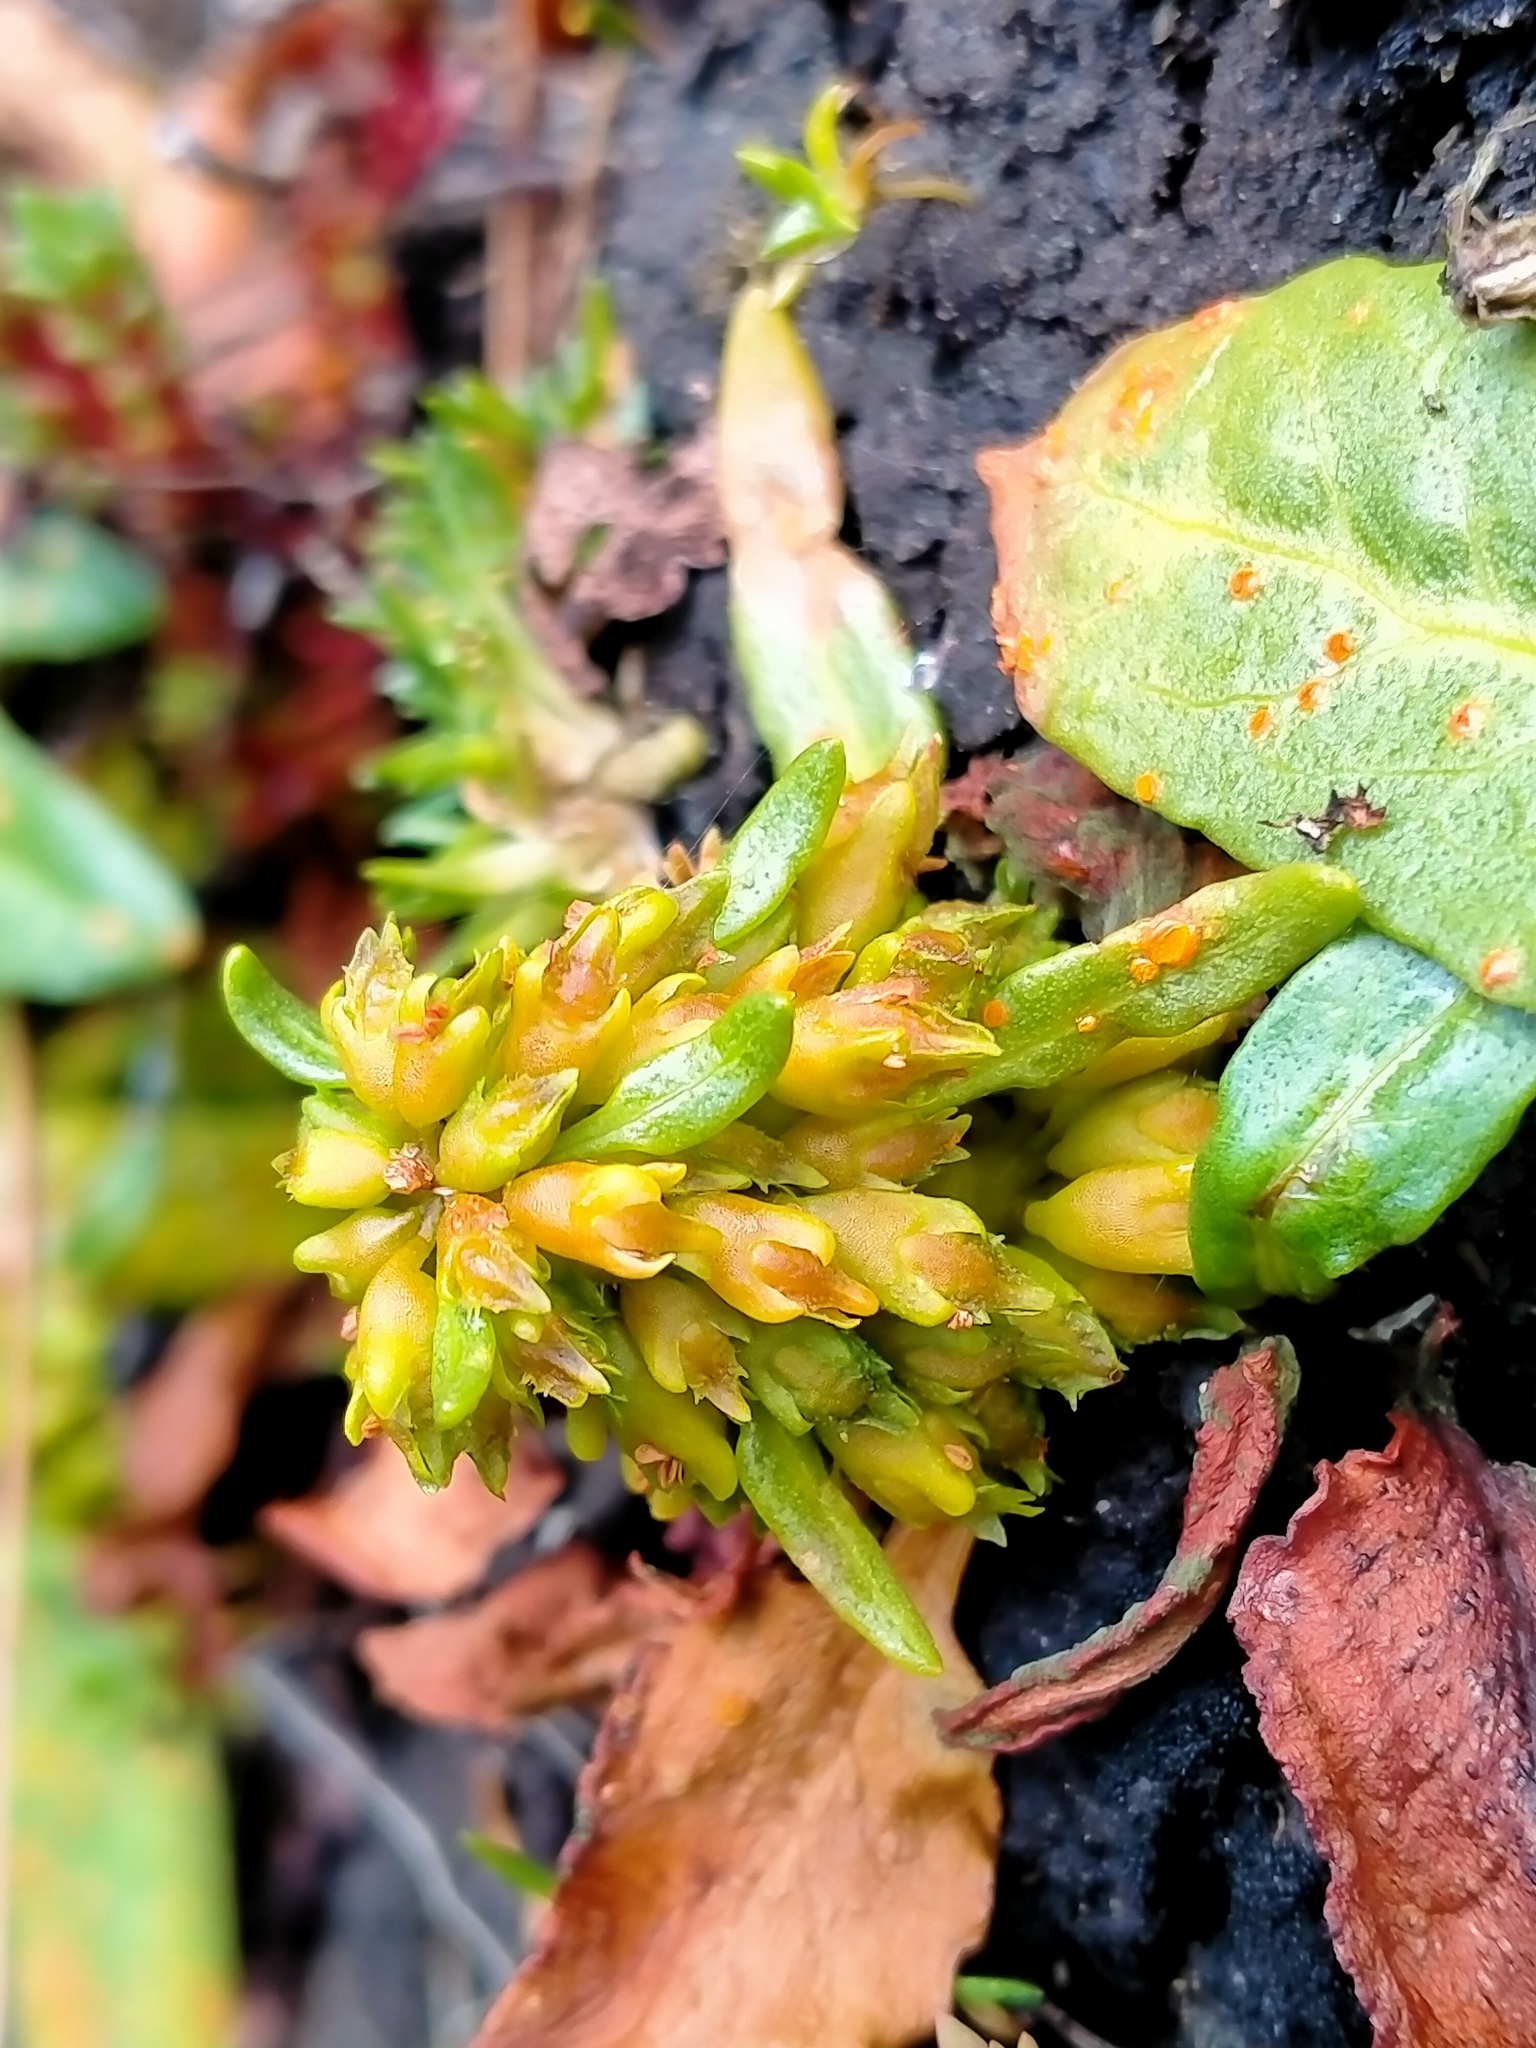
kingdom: Plantae
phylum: Tracheophyta
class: Magnoliopsida
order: Caryophyllales
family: Polygonaceae
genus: Rumex
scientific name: Rumex neglectus
